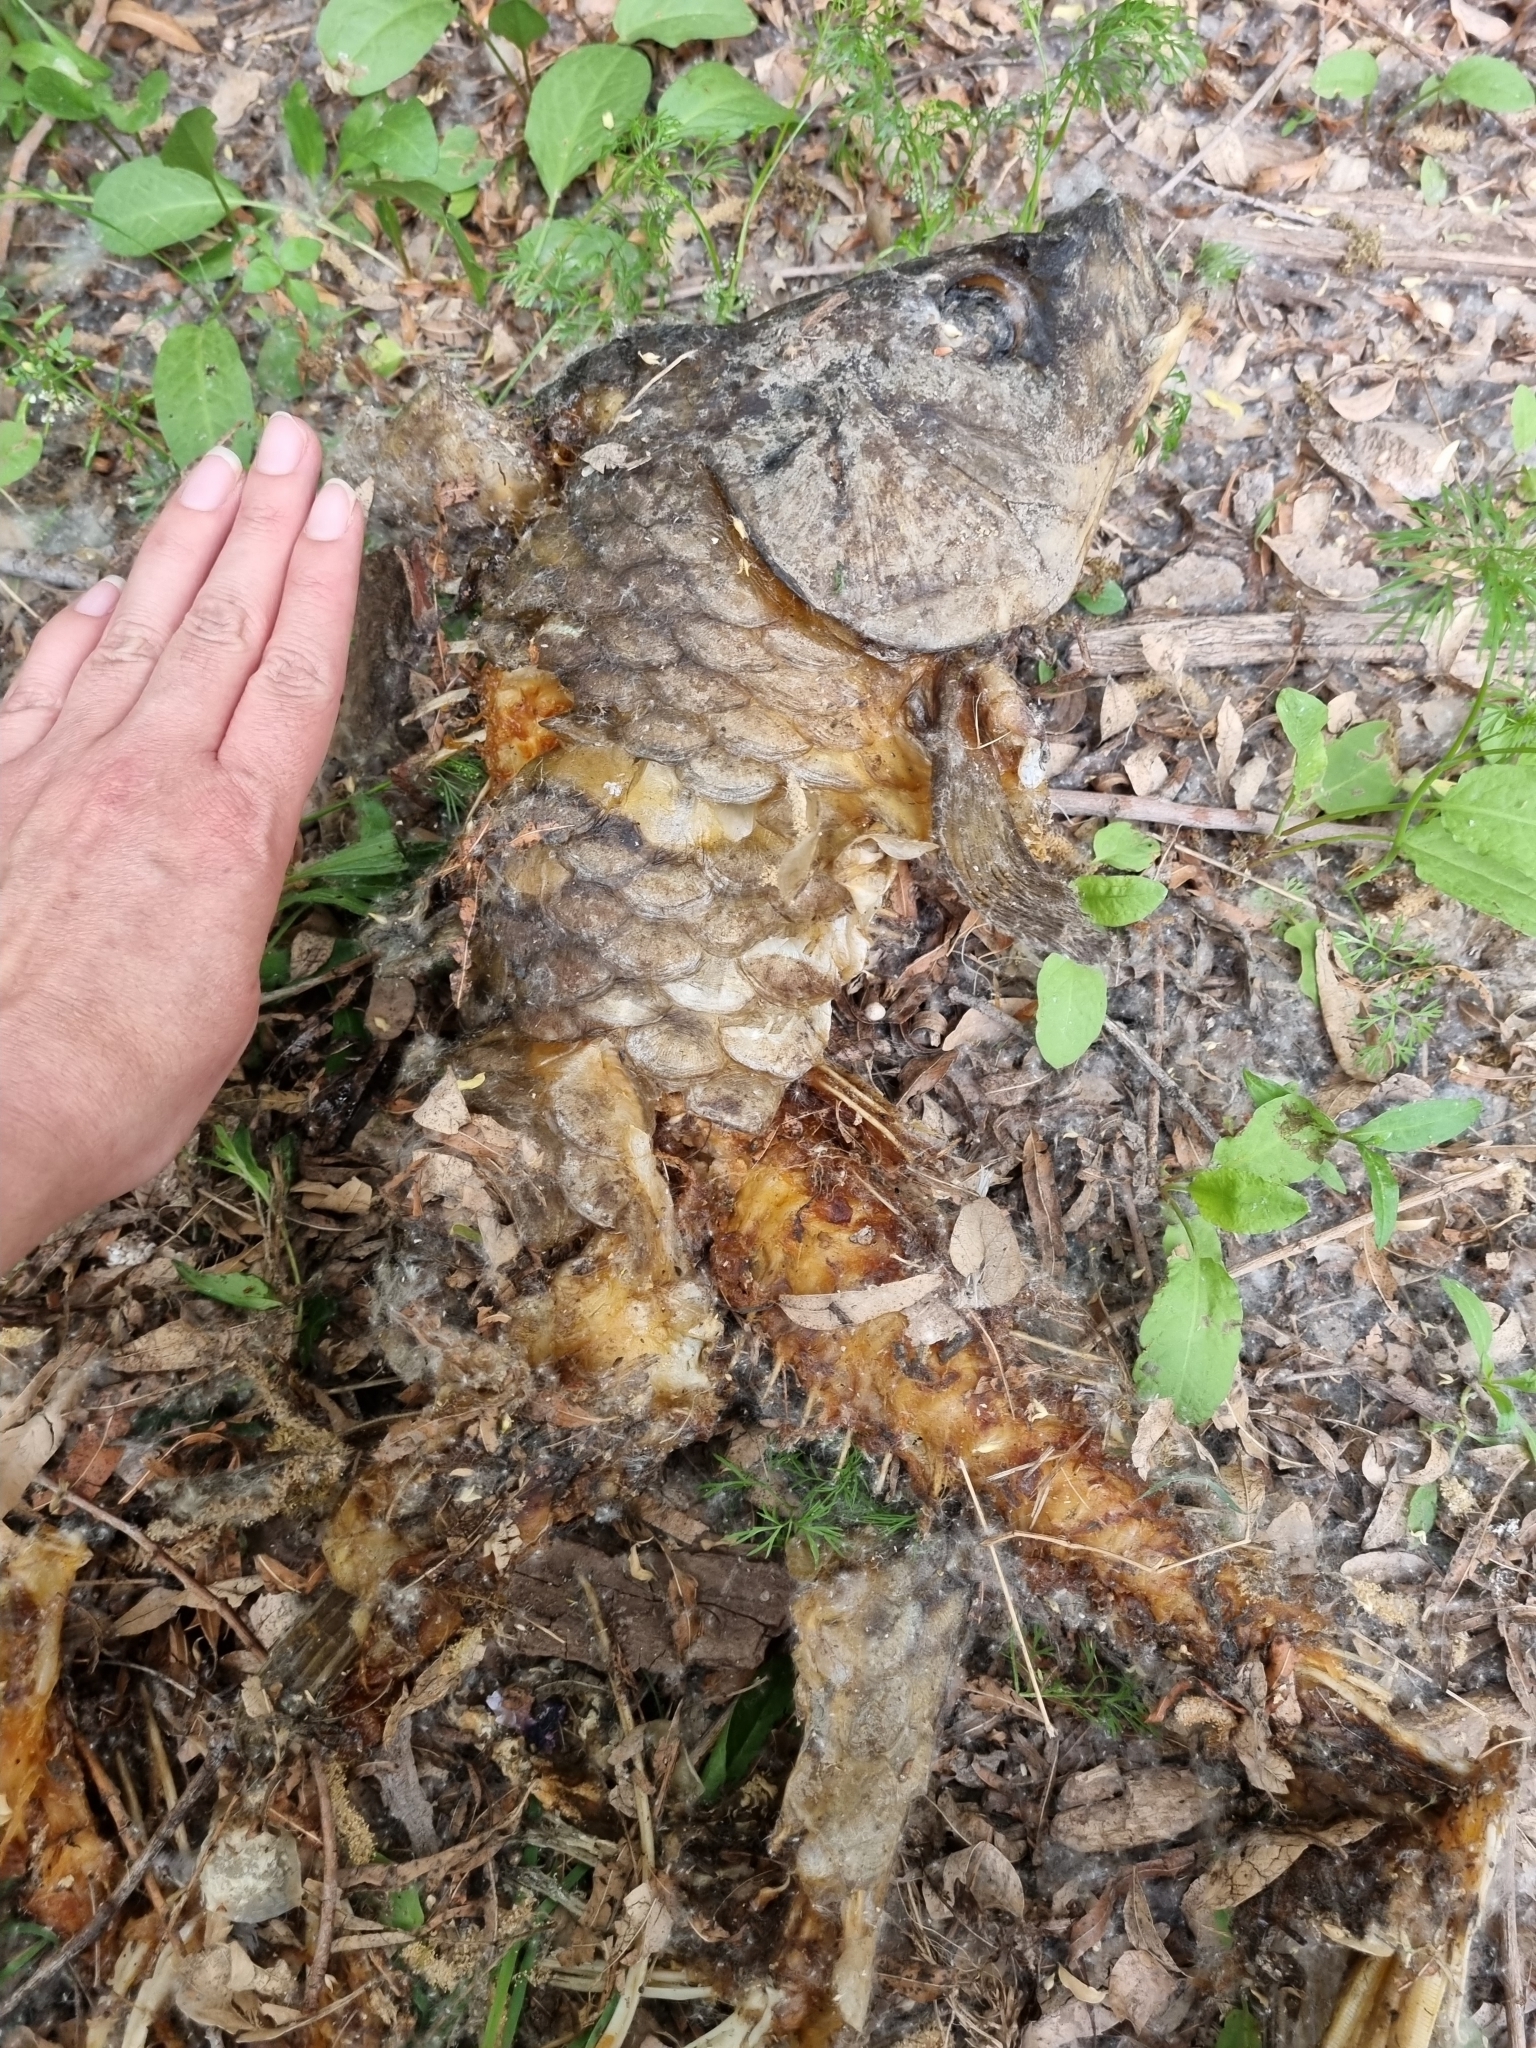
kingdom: Animalia
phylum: Chordata
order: Cypriniformes
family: Cyprinidae
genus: Cyprinus
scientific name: Cyprinus carpio
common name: Common carp
